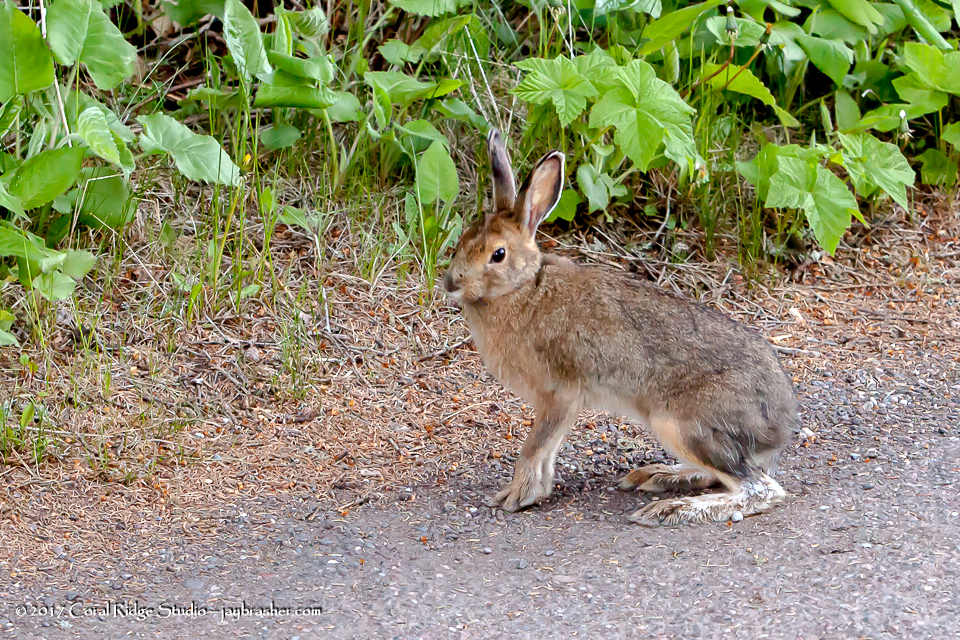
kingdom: Animalia
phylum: Chordata
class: Mammalia
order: Lagomorpha
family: Leporidae
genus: Lepus
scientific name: Lepus americanus
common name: Snowshoe hare
